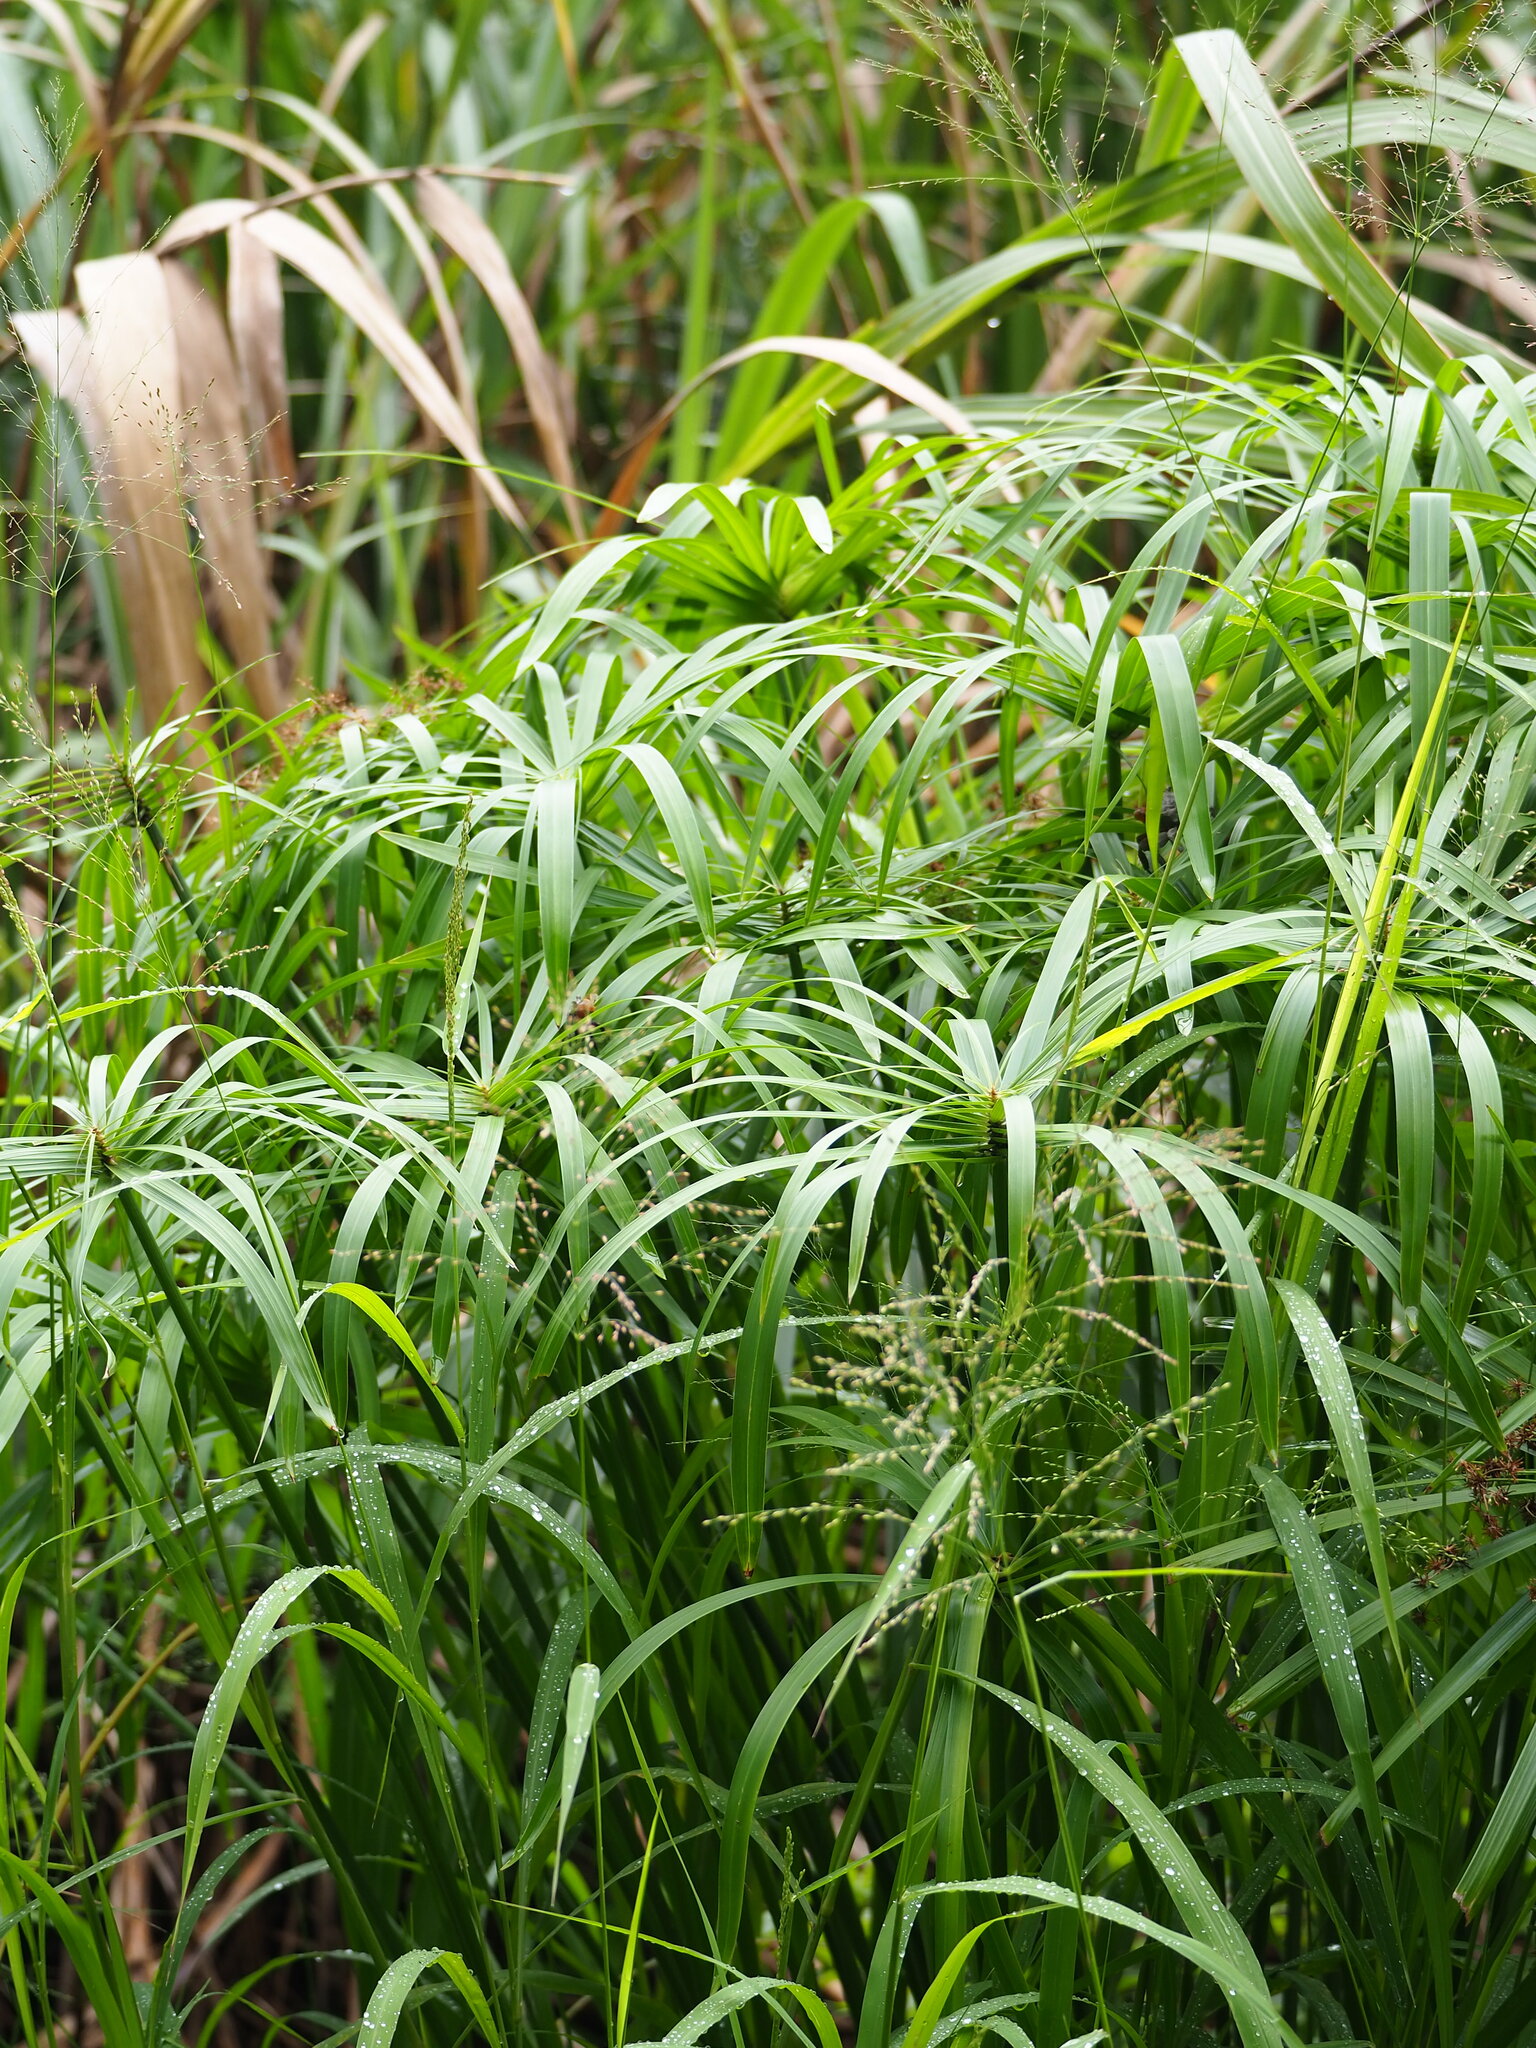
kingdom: Plantae
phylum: Tracheophyta
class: Liliopsida
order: Poales
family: Cyperaceae
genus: Cyperus
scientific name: Cyperus alternifolius
